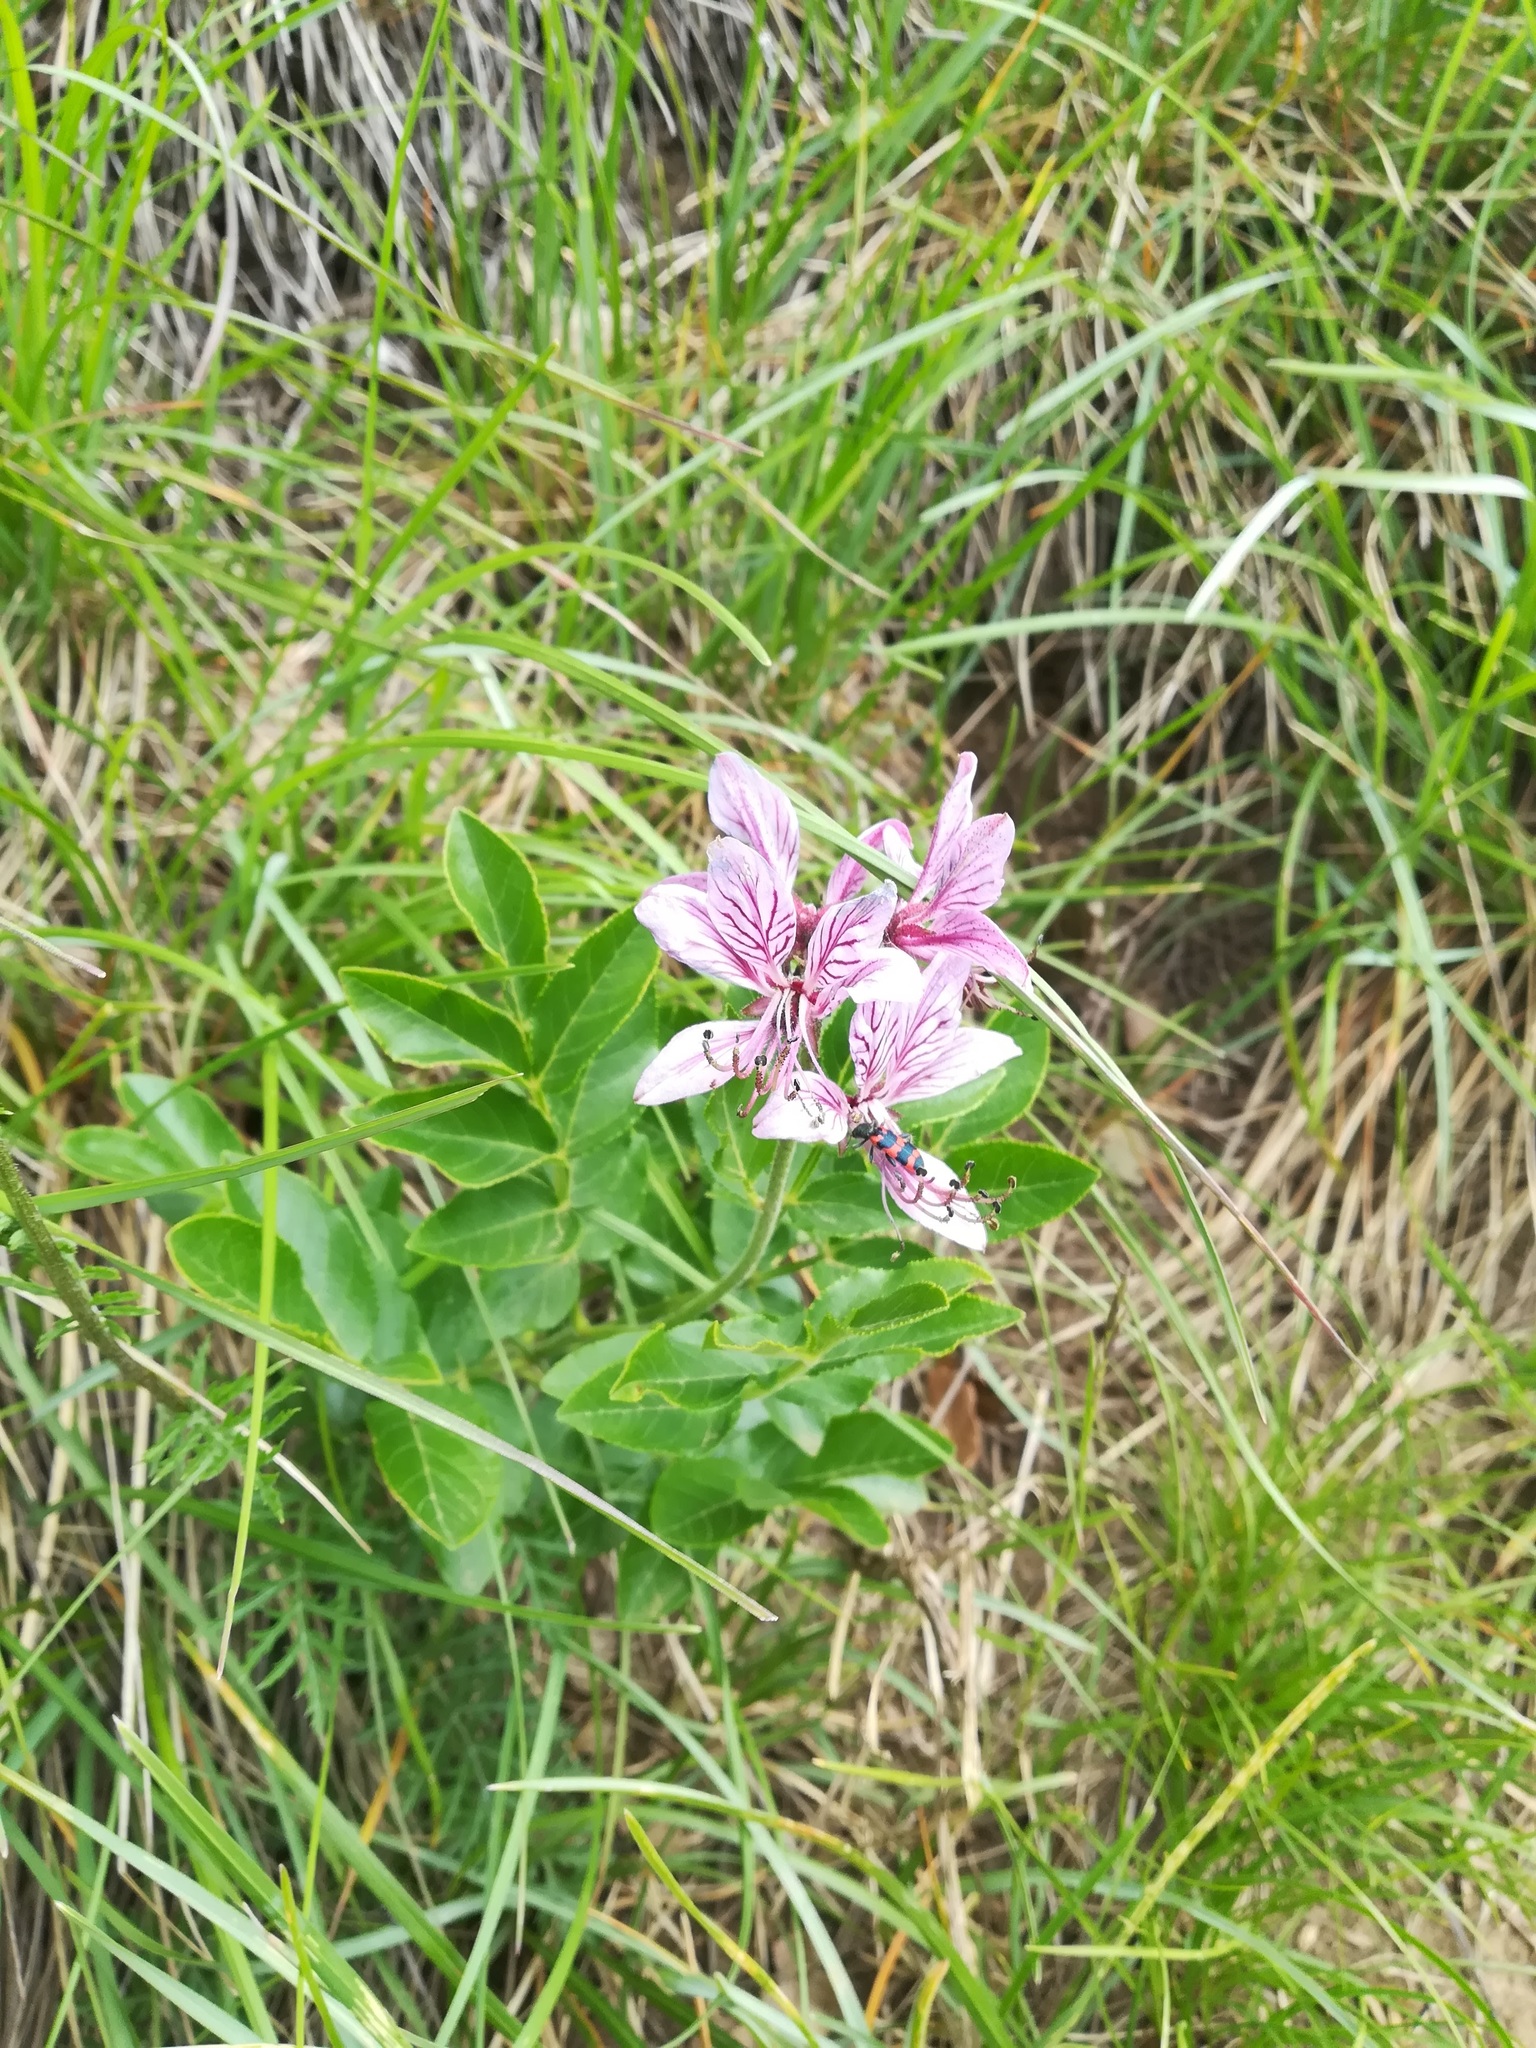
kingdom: Plantae
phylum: Tracheophyta
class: Magnoliopsida
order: Sapindales
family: Rutaceae
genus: Dictamnus
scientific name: Dictamnus albus
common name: Gasplant
